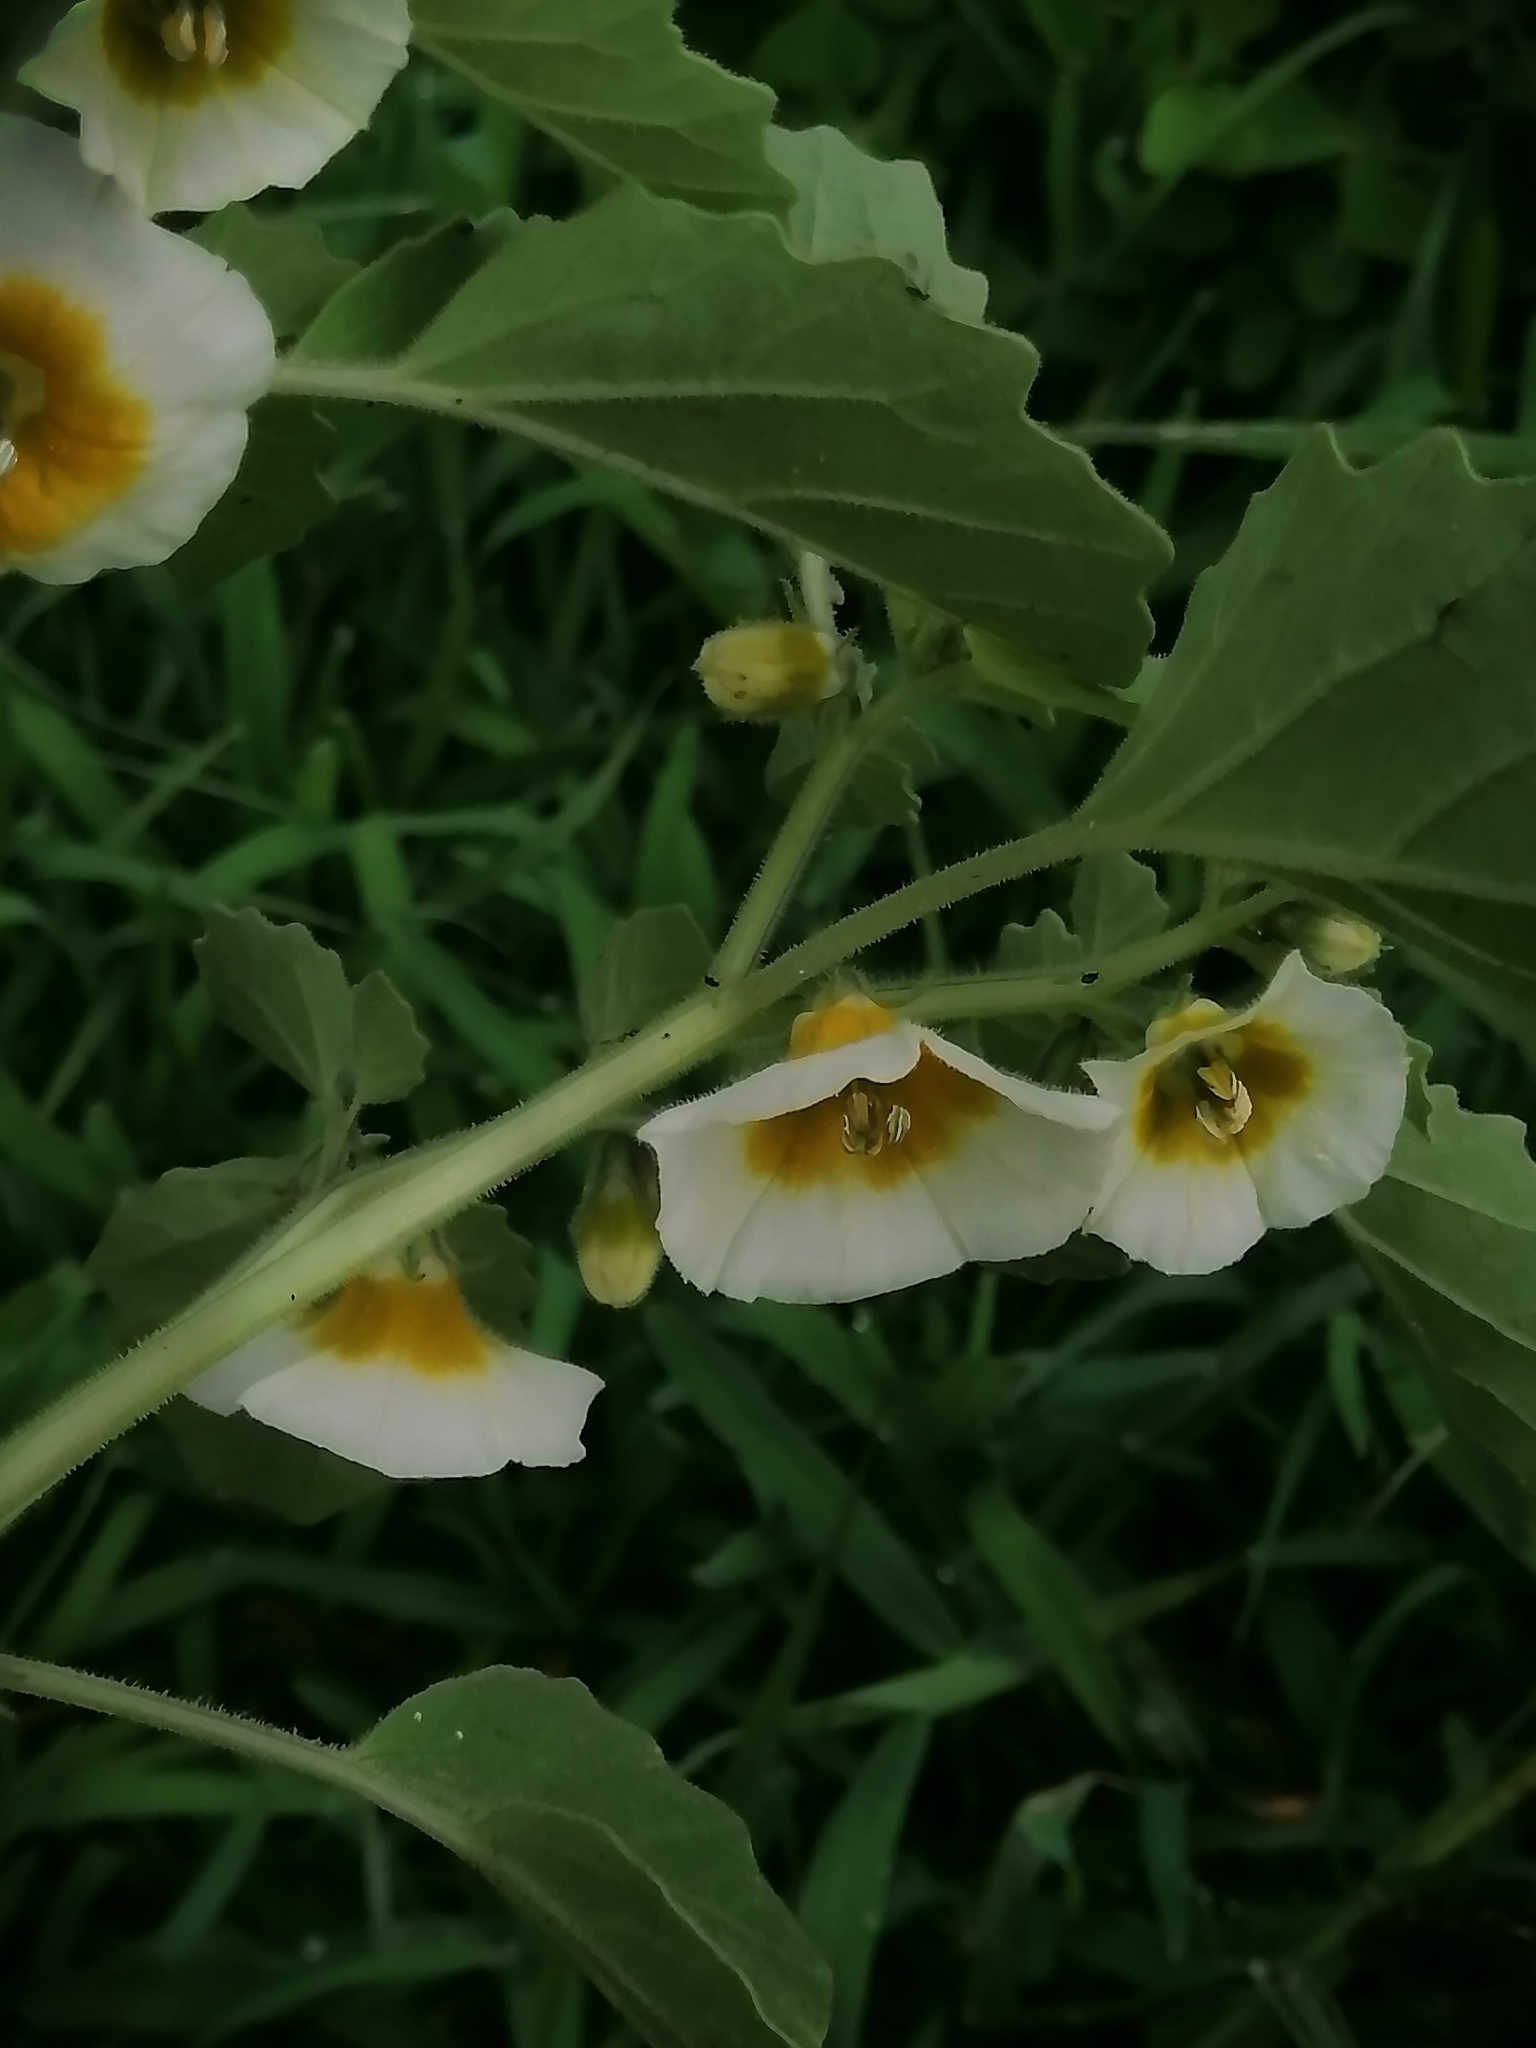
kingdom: Plantae
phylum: Tracheophyta
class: Magnoliopsida
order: Solanales
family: Solanaceae
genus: Physalis
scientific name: Physalis patula
